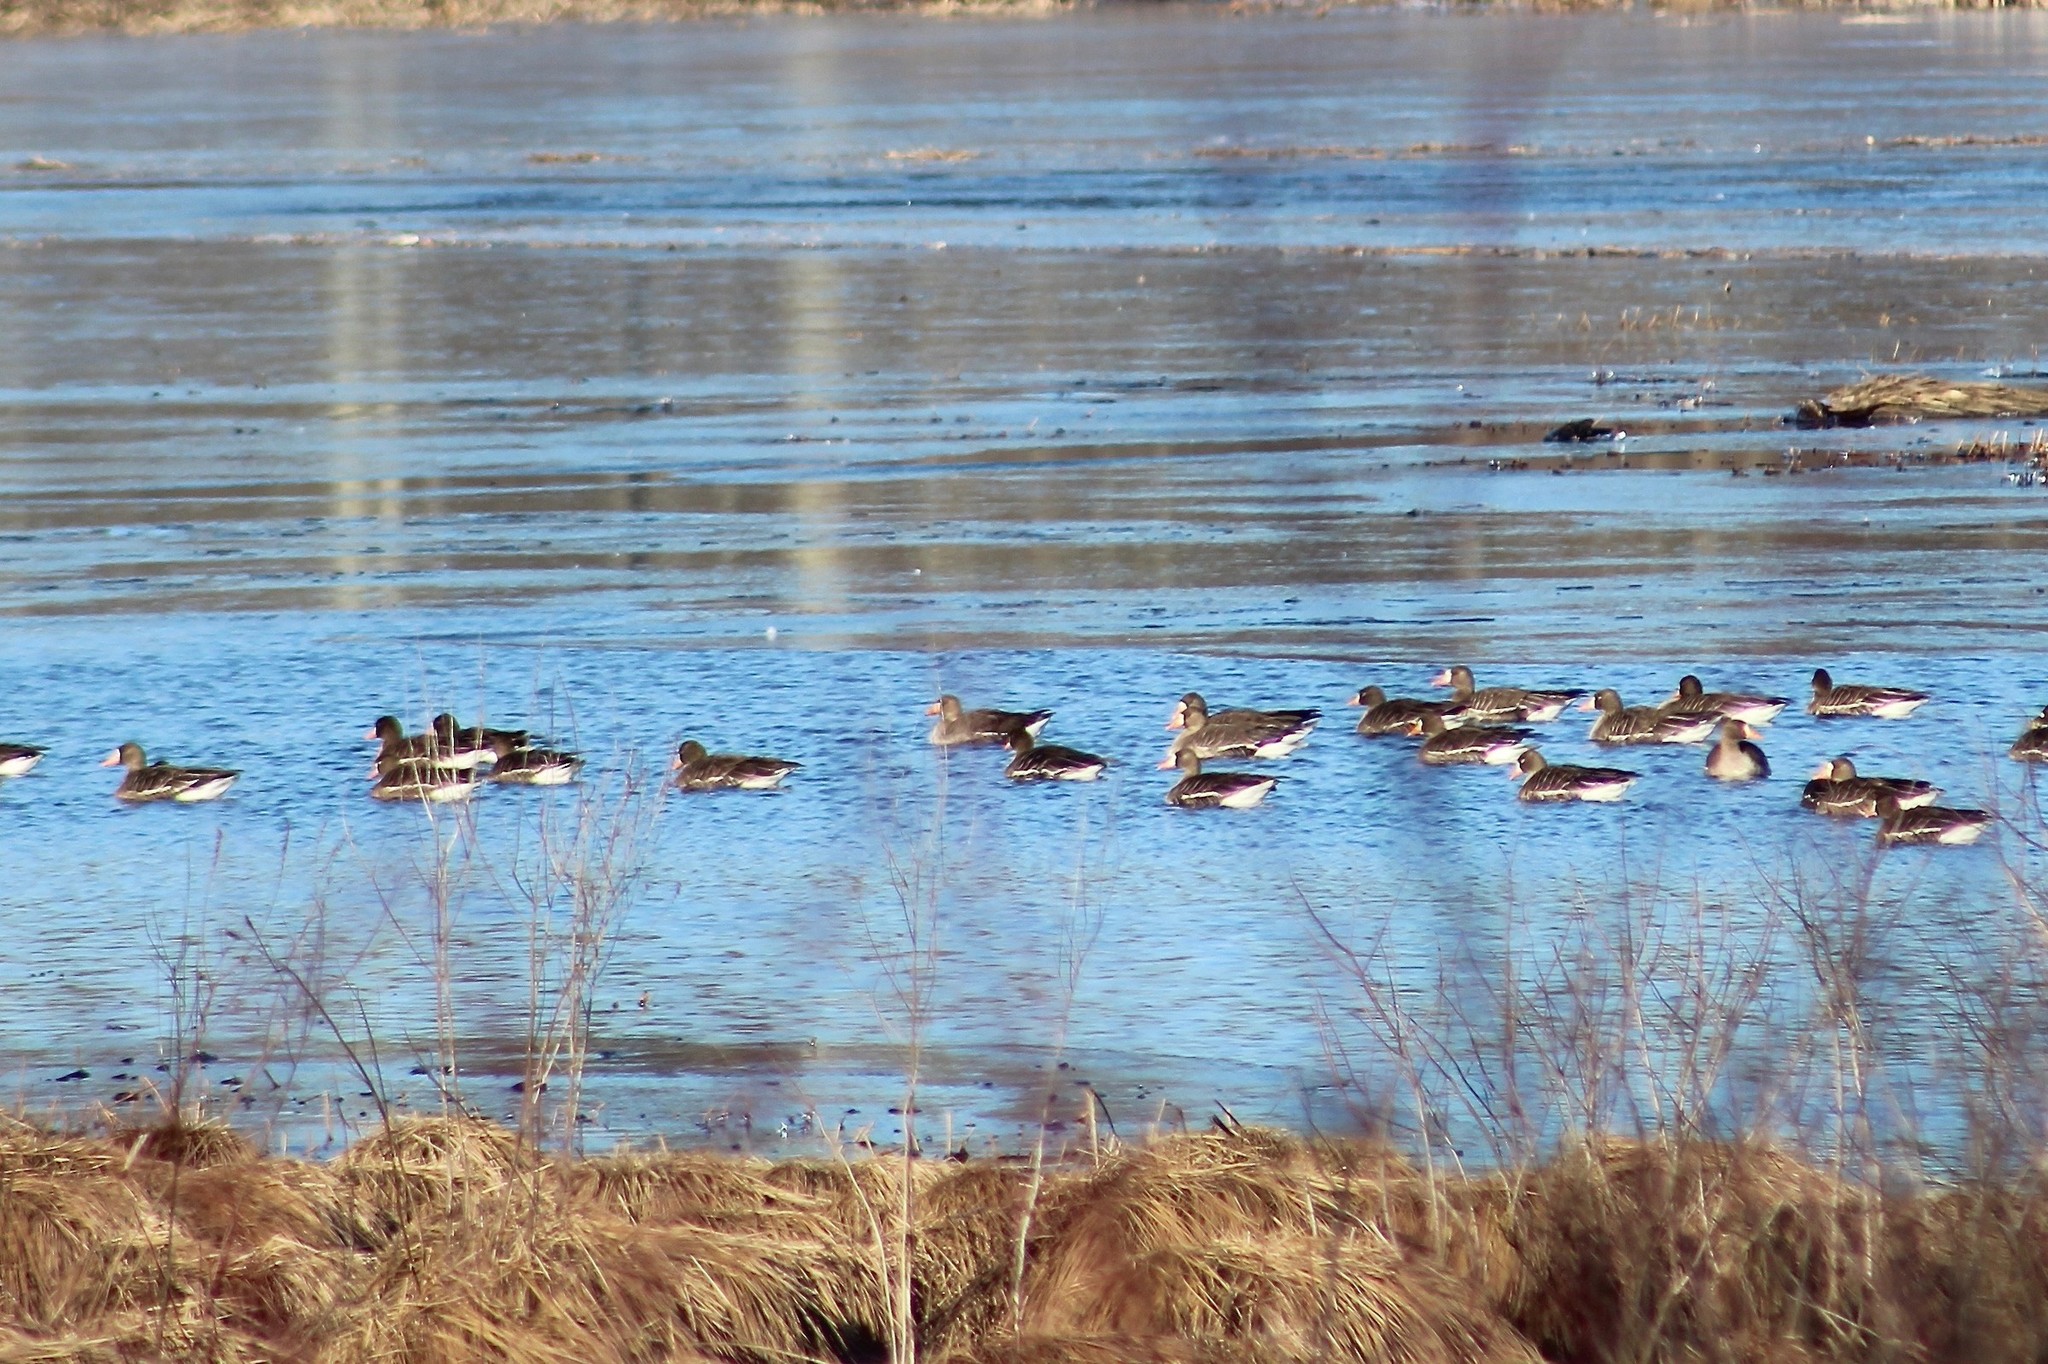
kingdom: Animalia
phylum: Chordata
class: Aves
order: Anseriformes
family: Anatidae
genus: Anser
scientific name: Anser albifrons
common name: Greater white-fronted goose
